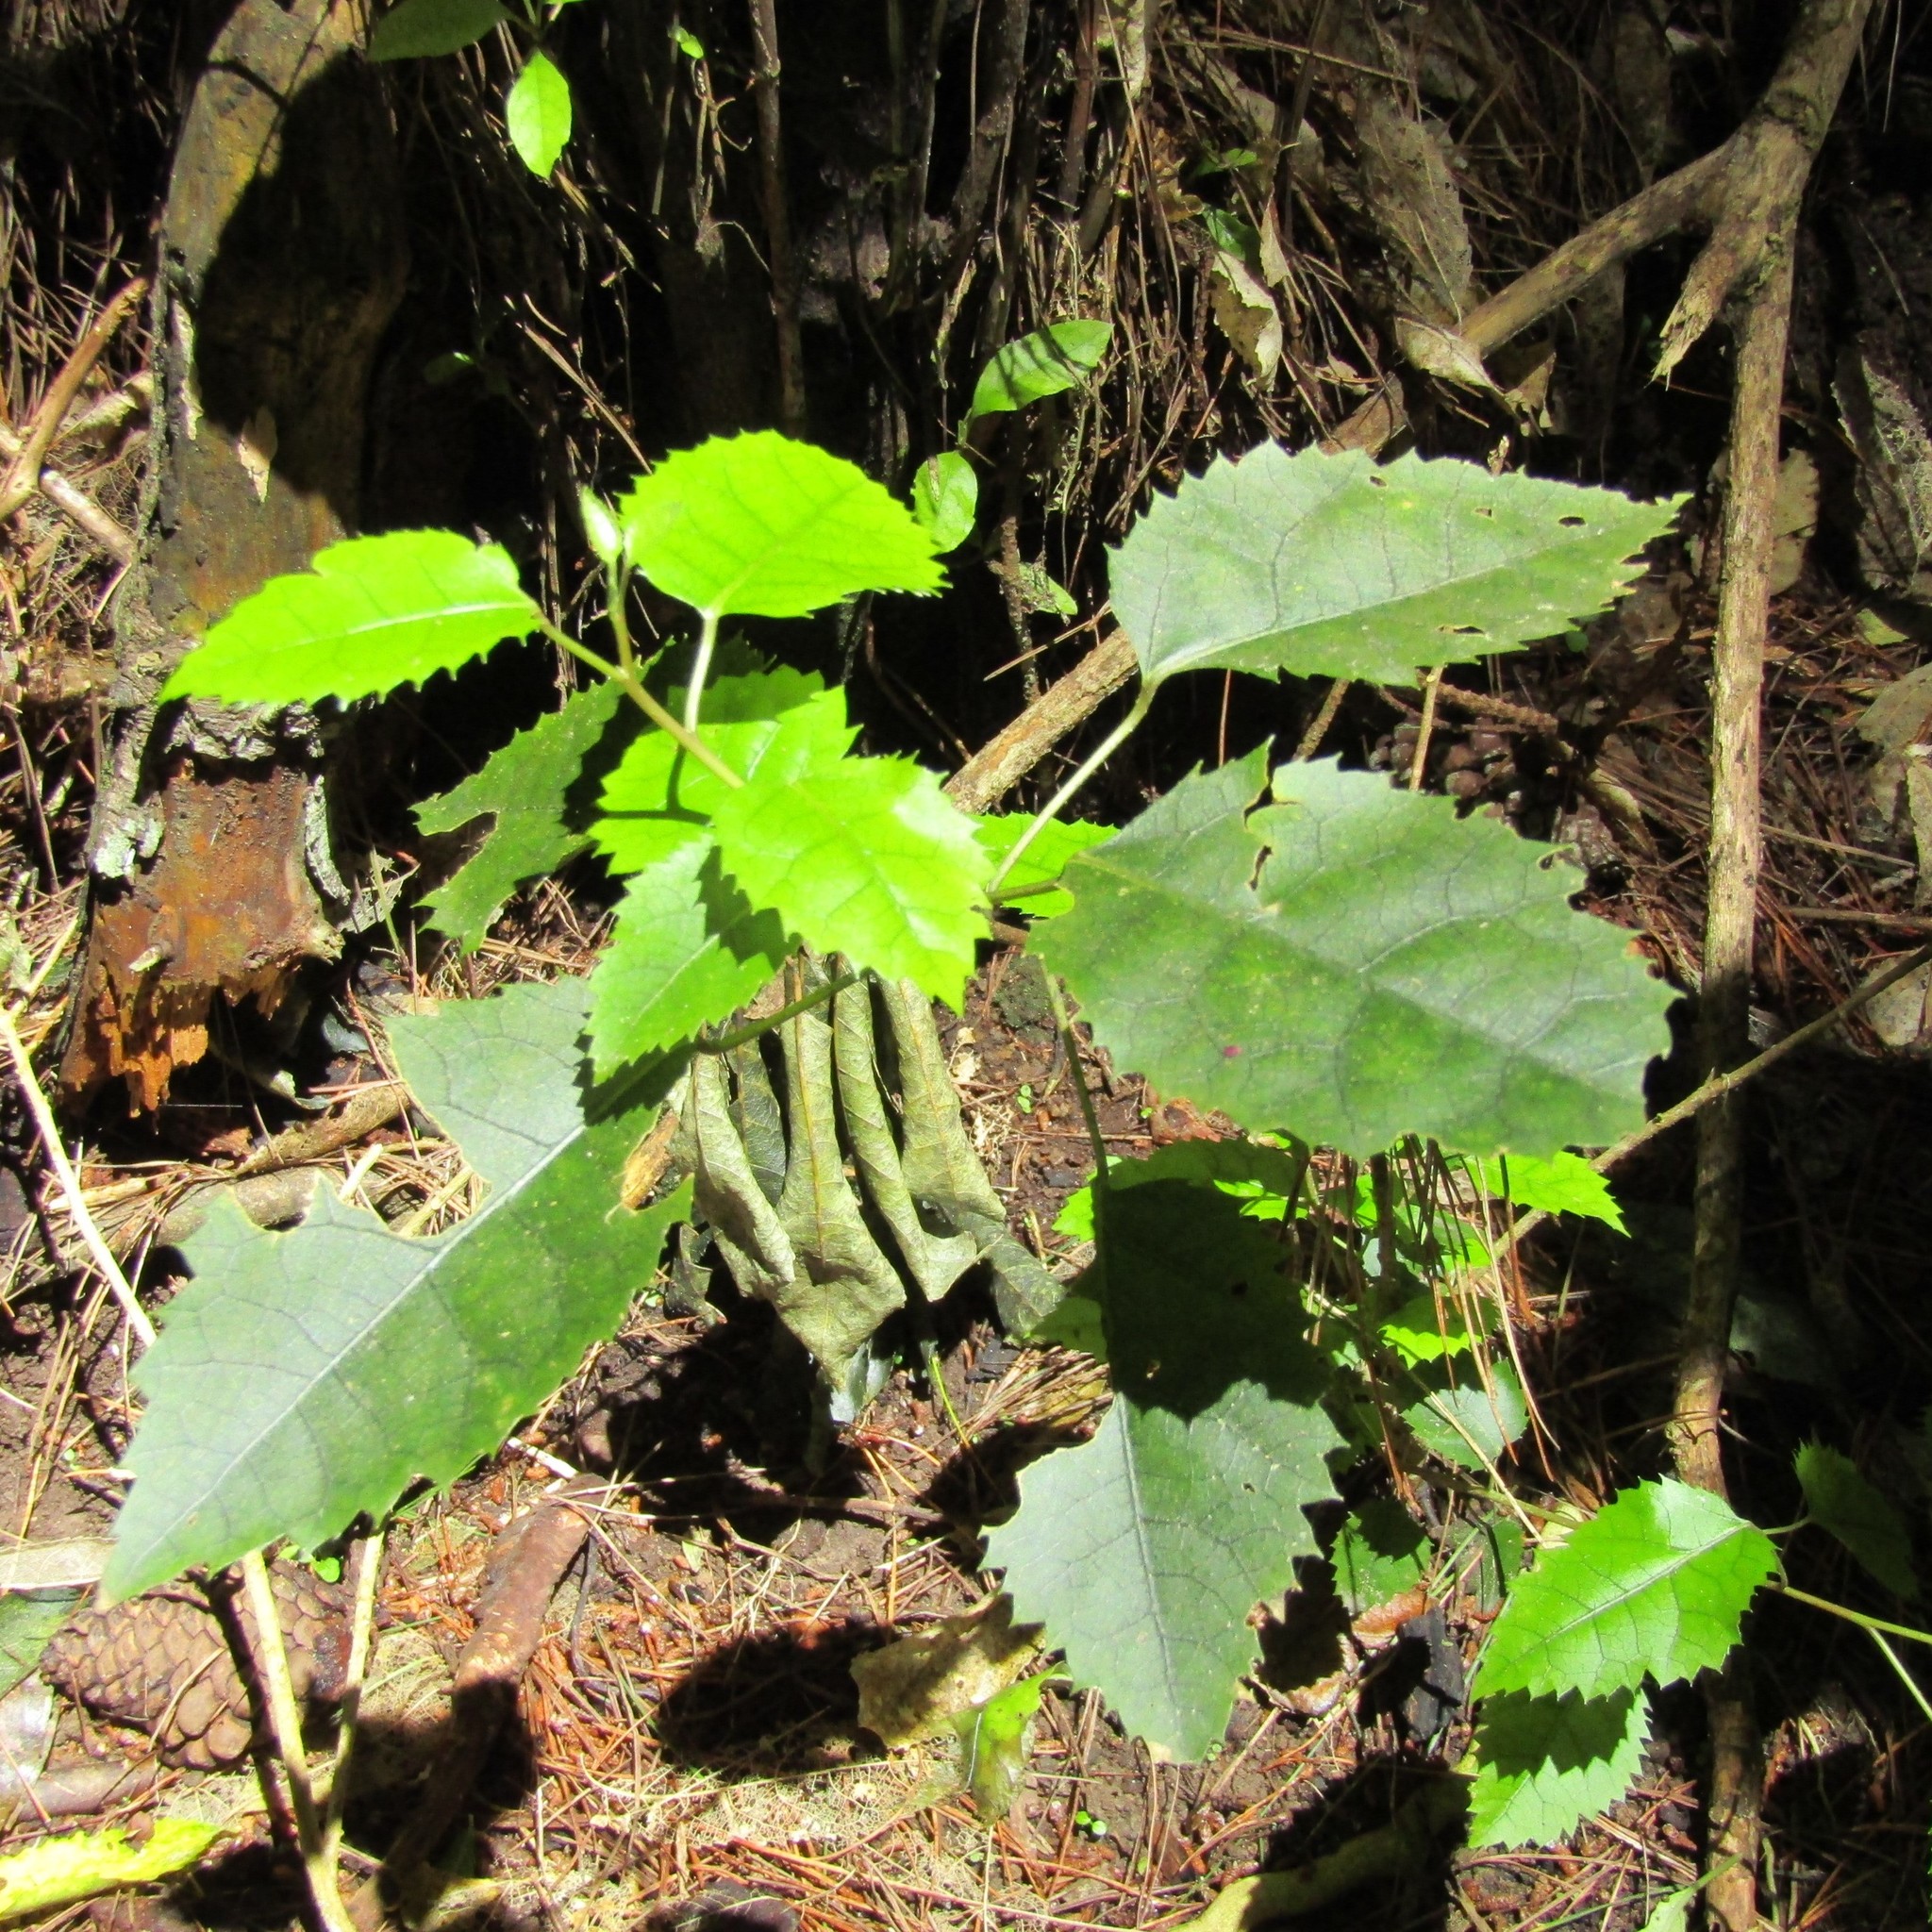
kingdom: Plantae
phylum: Tracheophyta
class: Magnoliopsida
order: Malvales
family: Malvaceae
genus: Hoheria
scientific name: Hoheria populnea
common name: Lacebark
